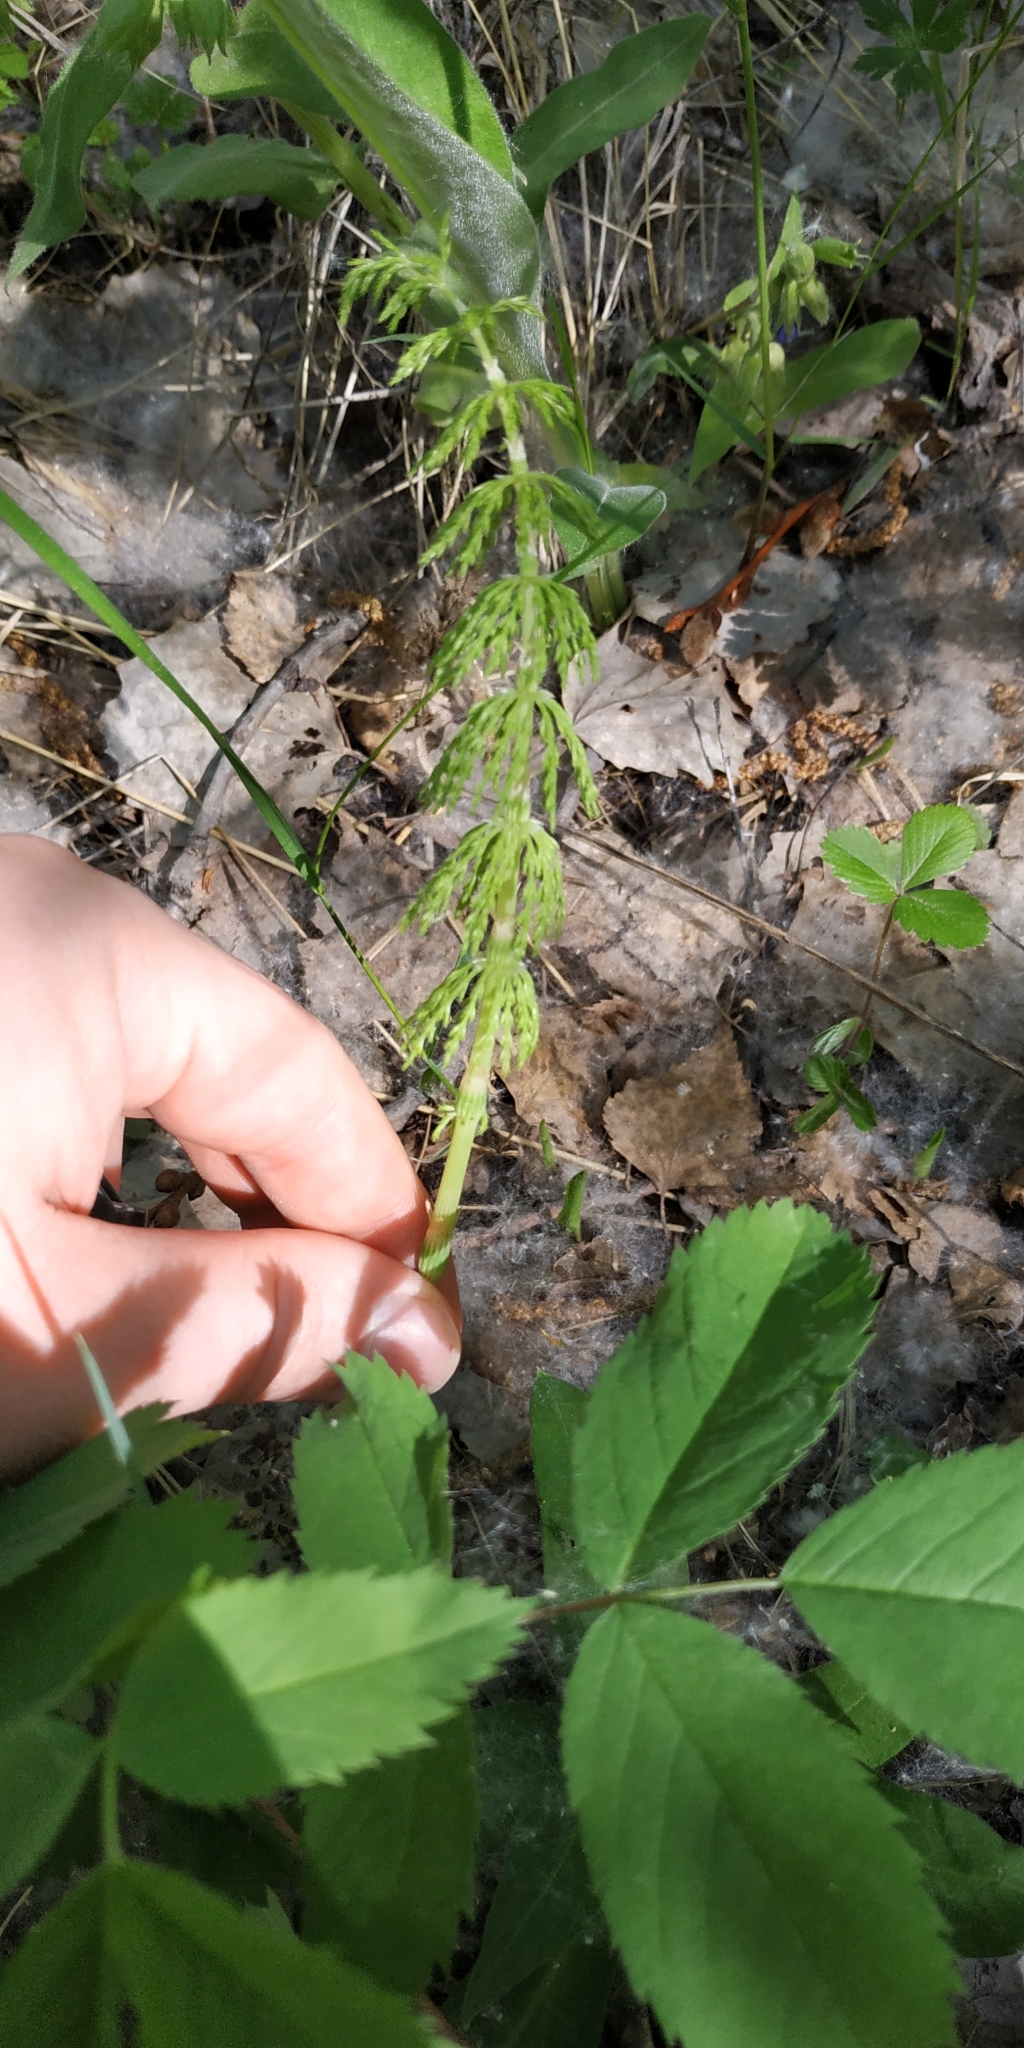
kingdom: Plantae
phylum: Tracheophyta
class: Polypodiopsida
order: Equisetales
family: Equisetaceae
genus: Equisetum
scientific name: Equisetum sylvaticum
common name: Wood horsetail
